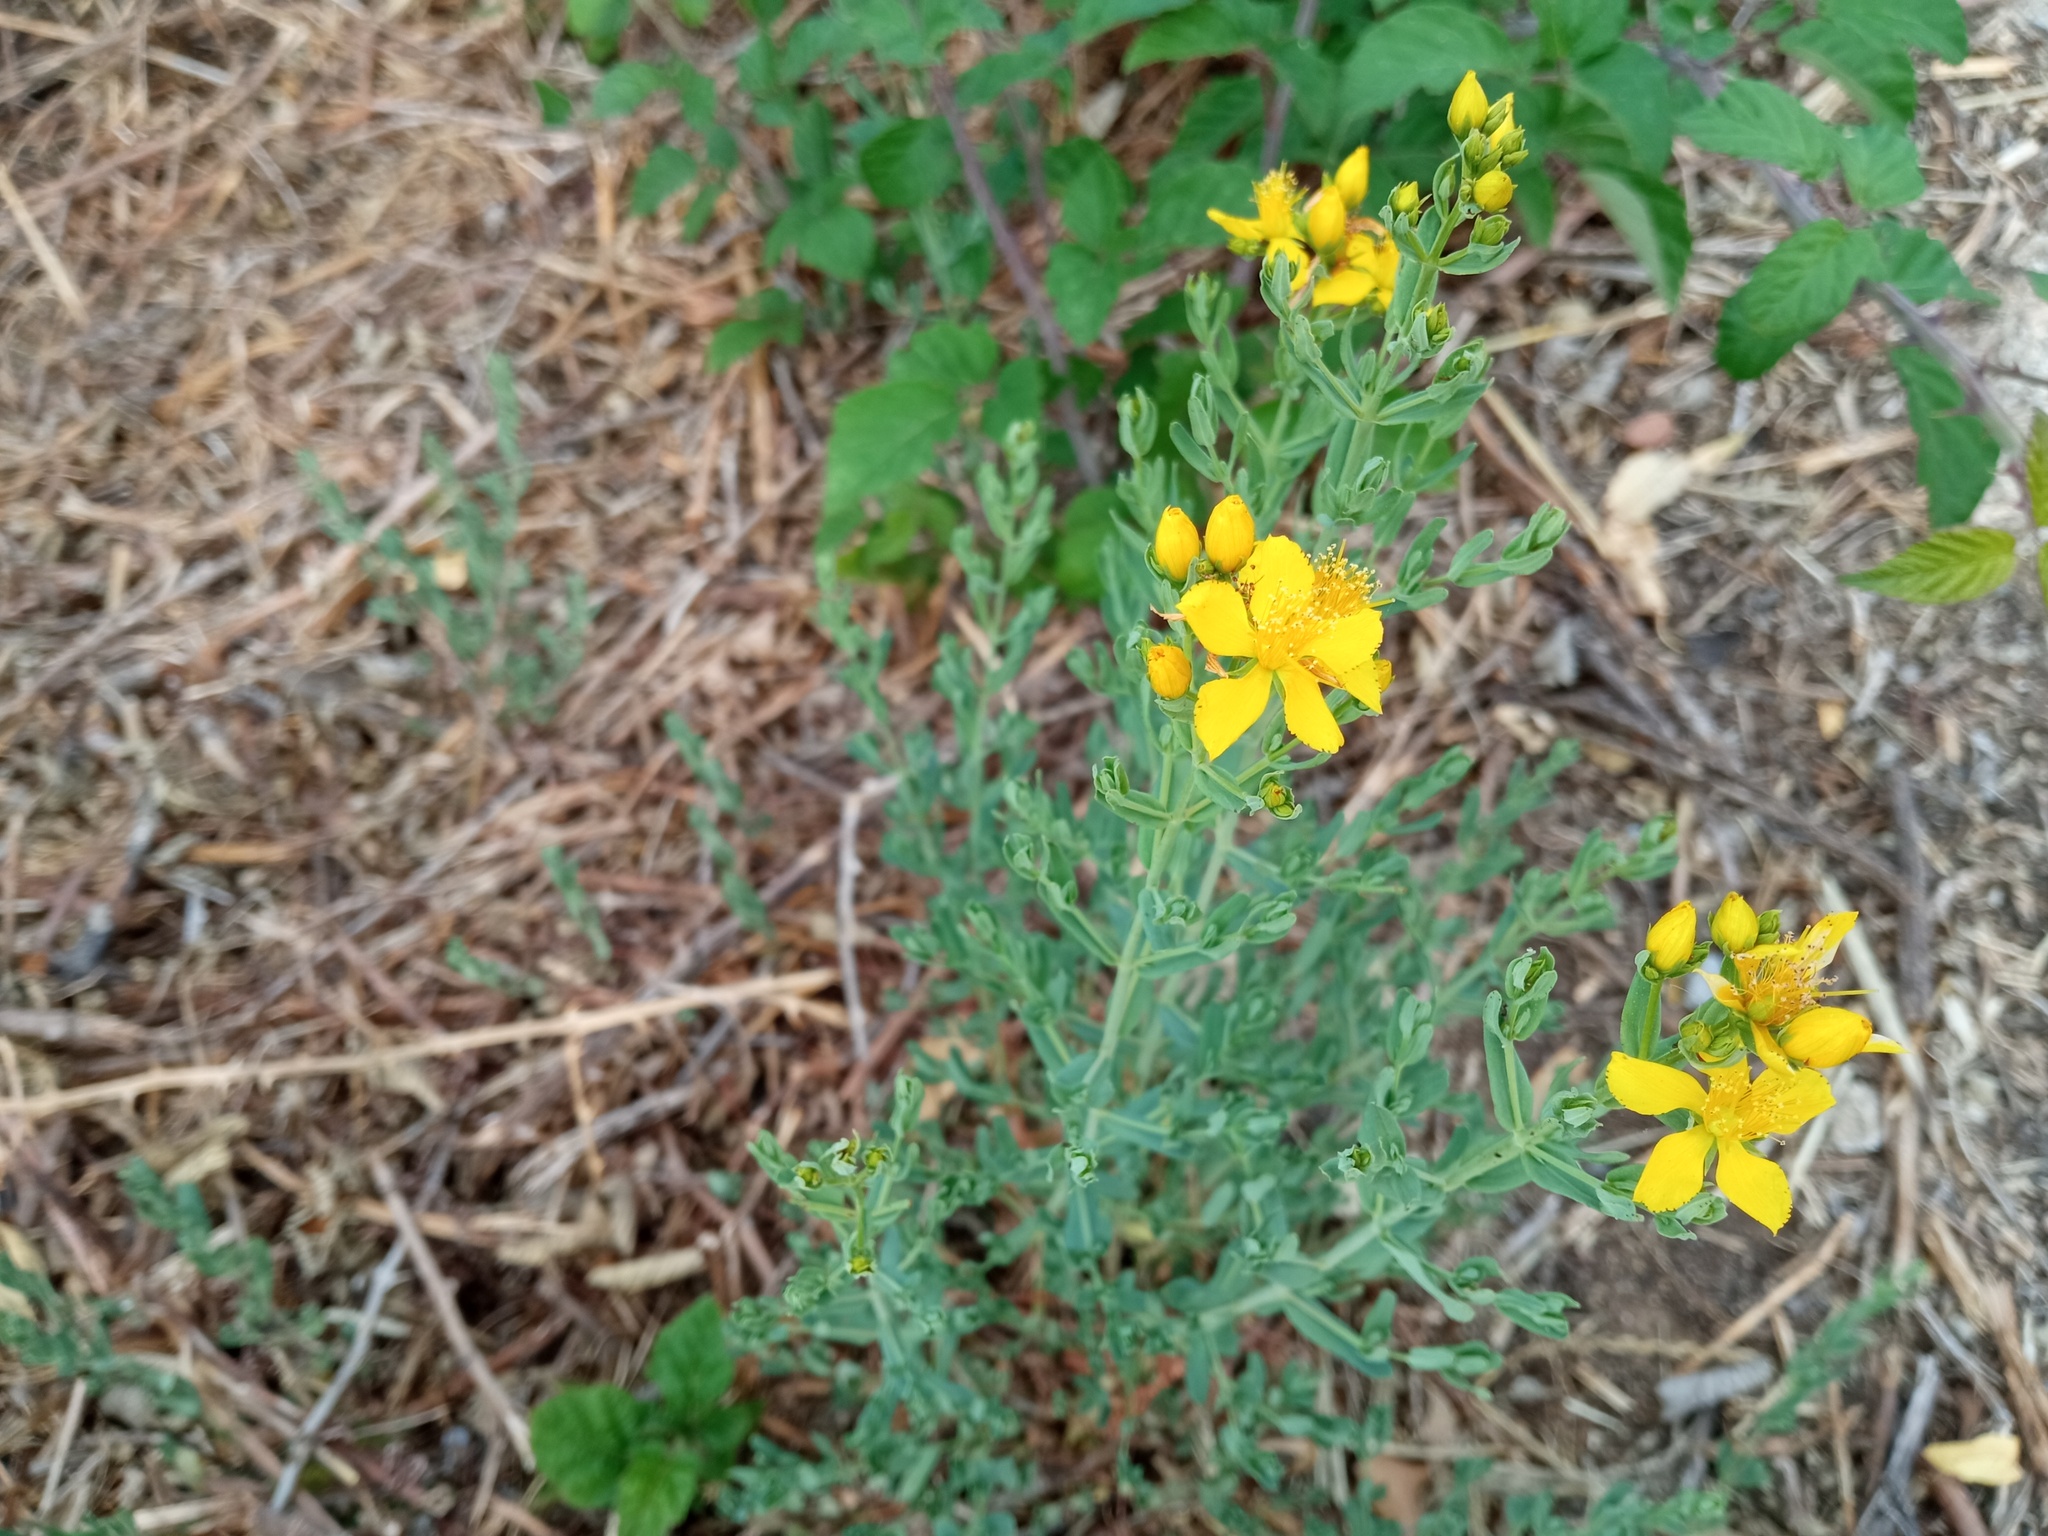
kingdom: Plantae
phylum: Tracheophyta
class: Magnoliopsida
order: Malpighiales
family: Hypericaceae
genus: Hypericum
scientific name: Hypericum perforatum
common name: Common st. johnswort
